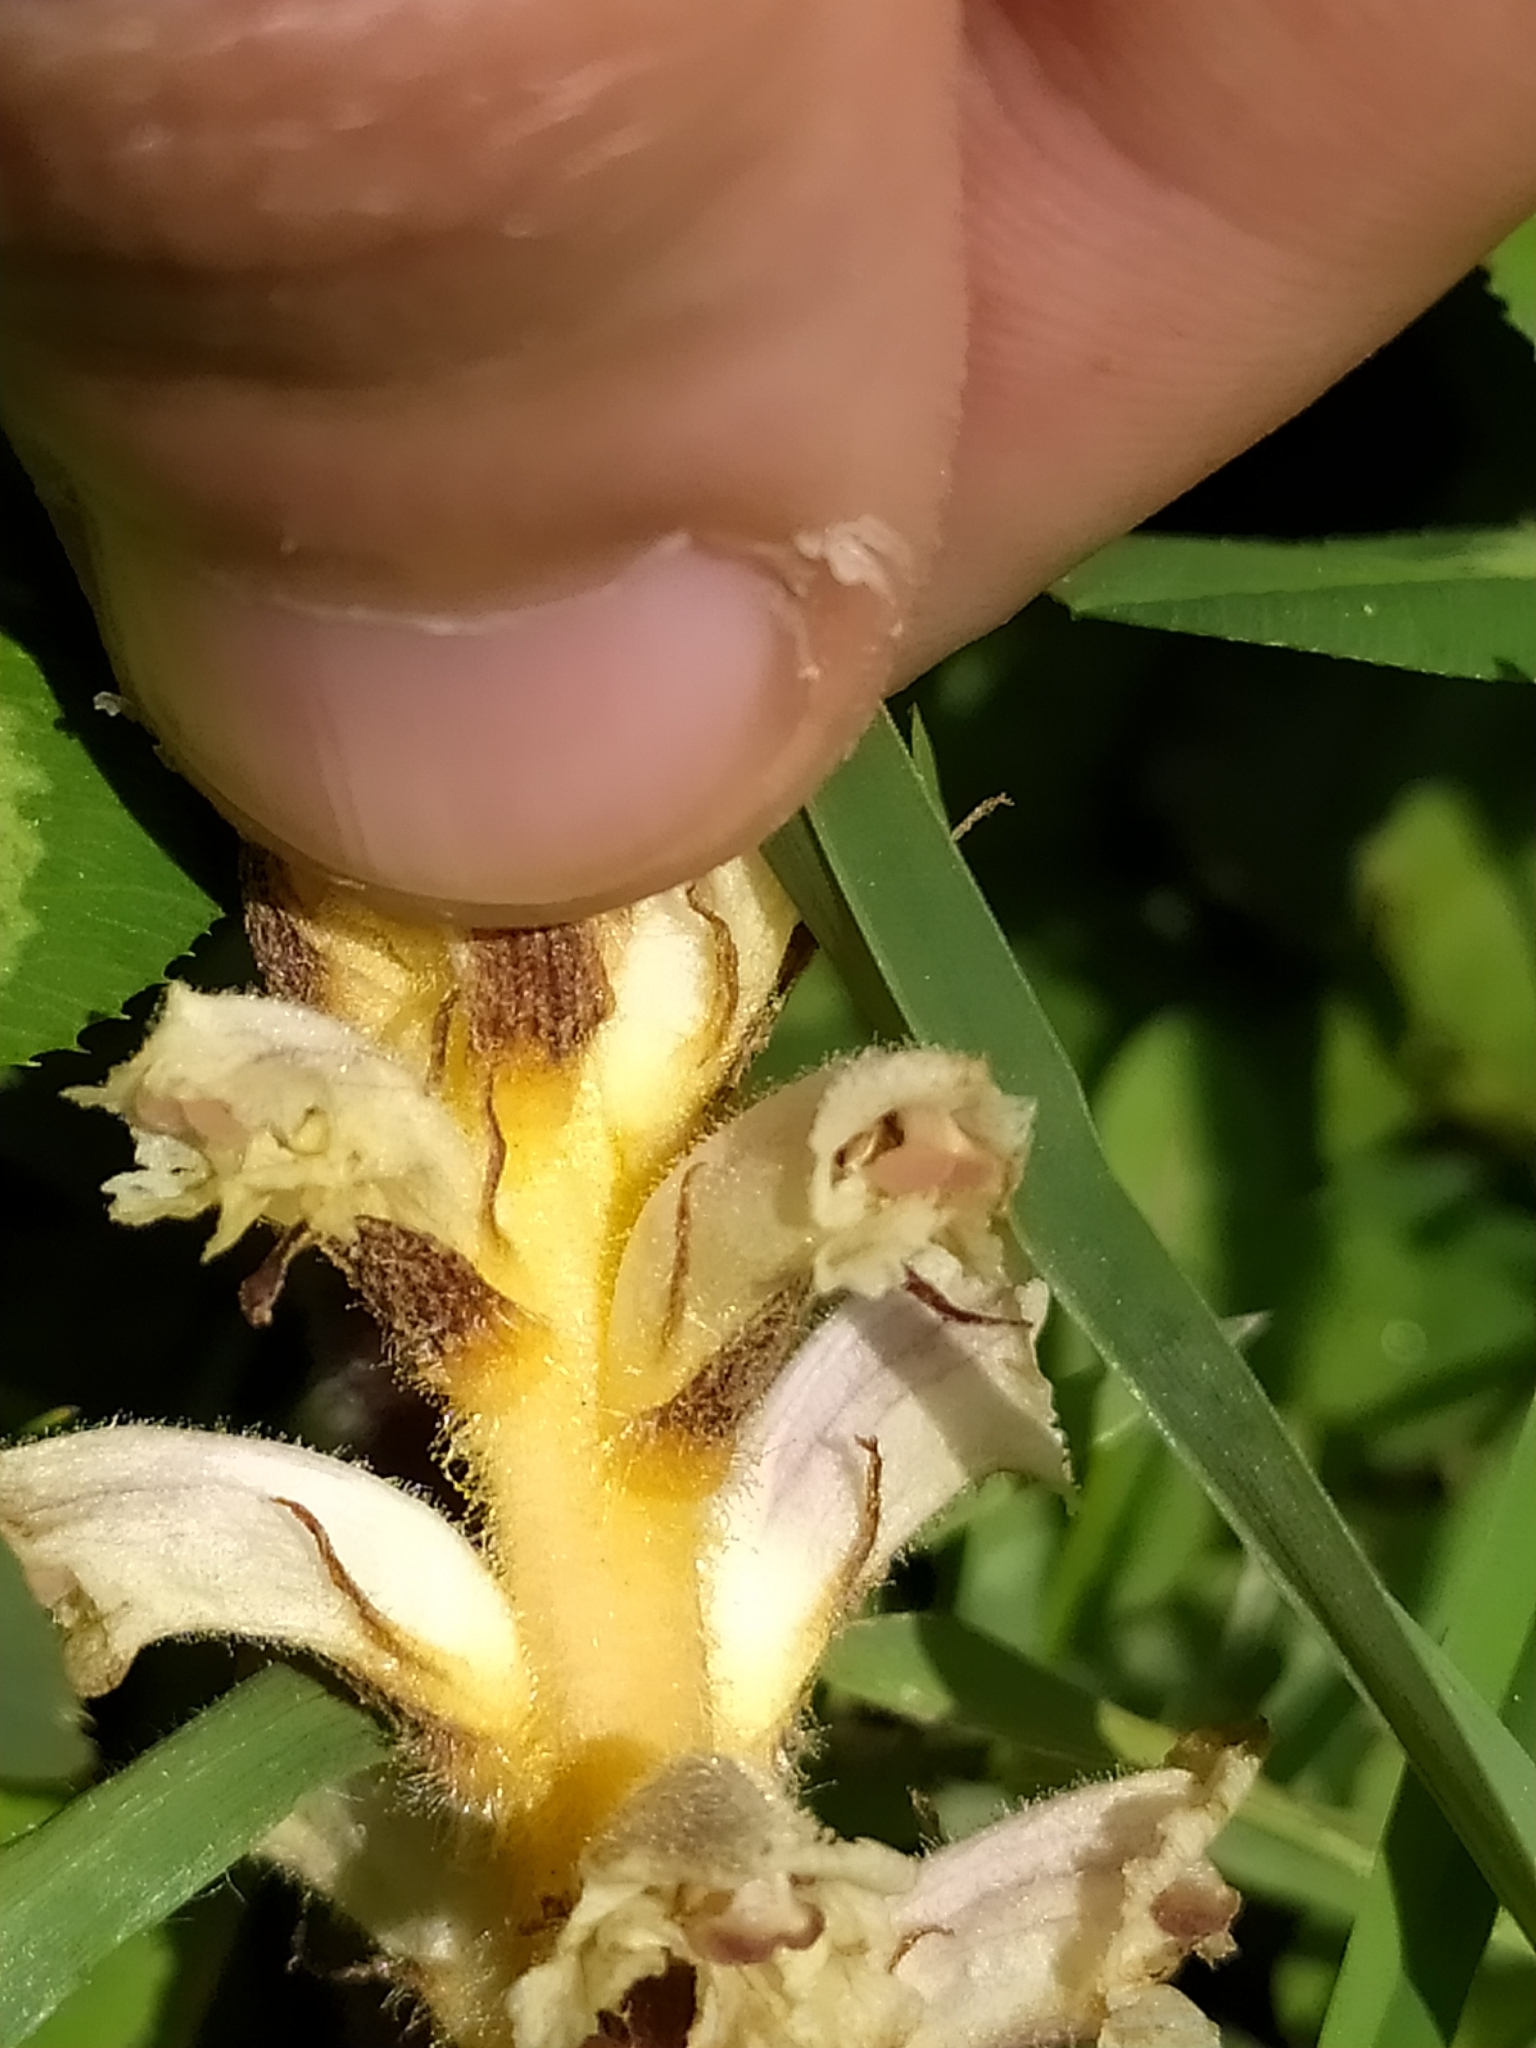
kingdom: Plantae
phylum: Tracheophyta
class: Magnoliopsida
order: Lamiales
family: Orobanchaceae
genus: Orobanche
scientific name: Orobanche minor
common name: Common broomrape
